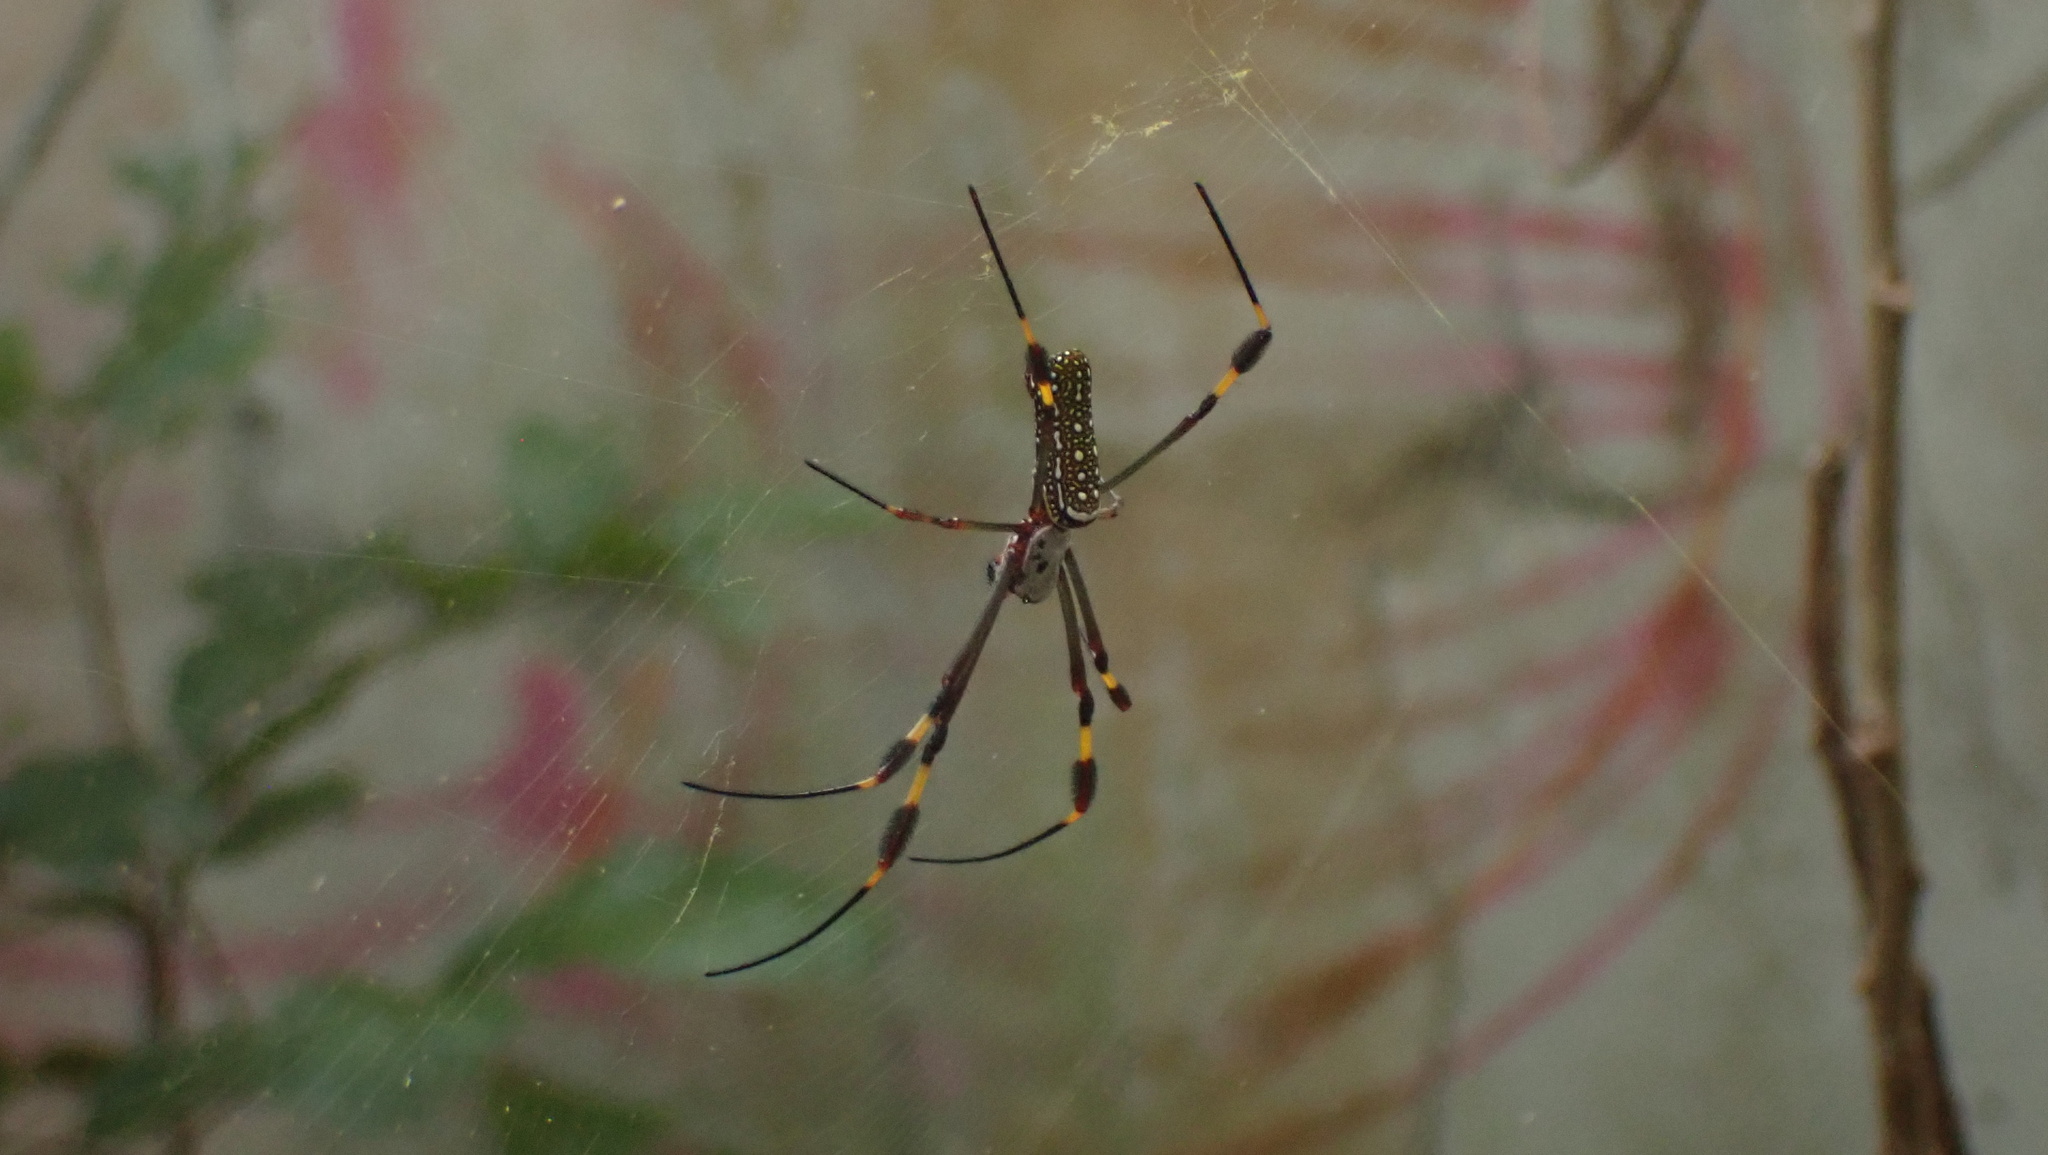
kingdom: Animalia
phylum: Arthropoda
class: Arachnida
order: Araneae
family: Araneidae
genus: Trichonephila
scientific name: Trichonephila clavipes
